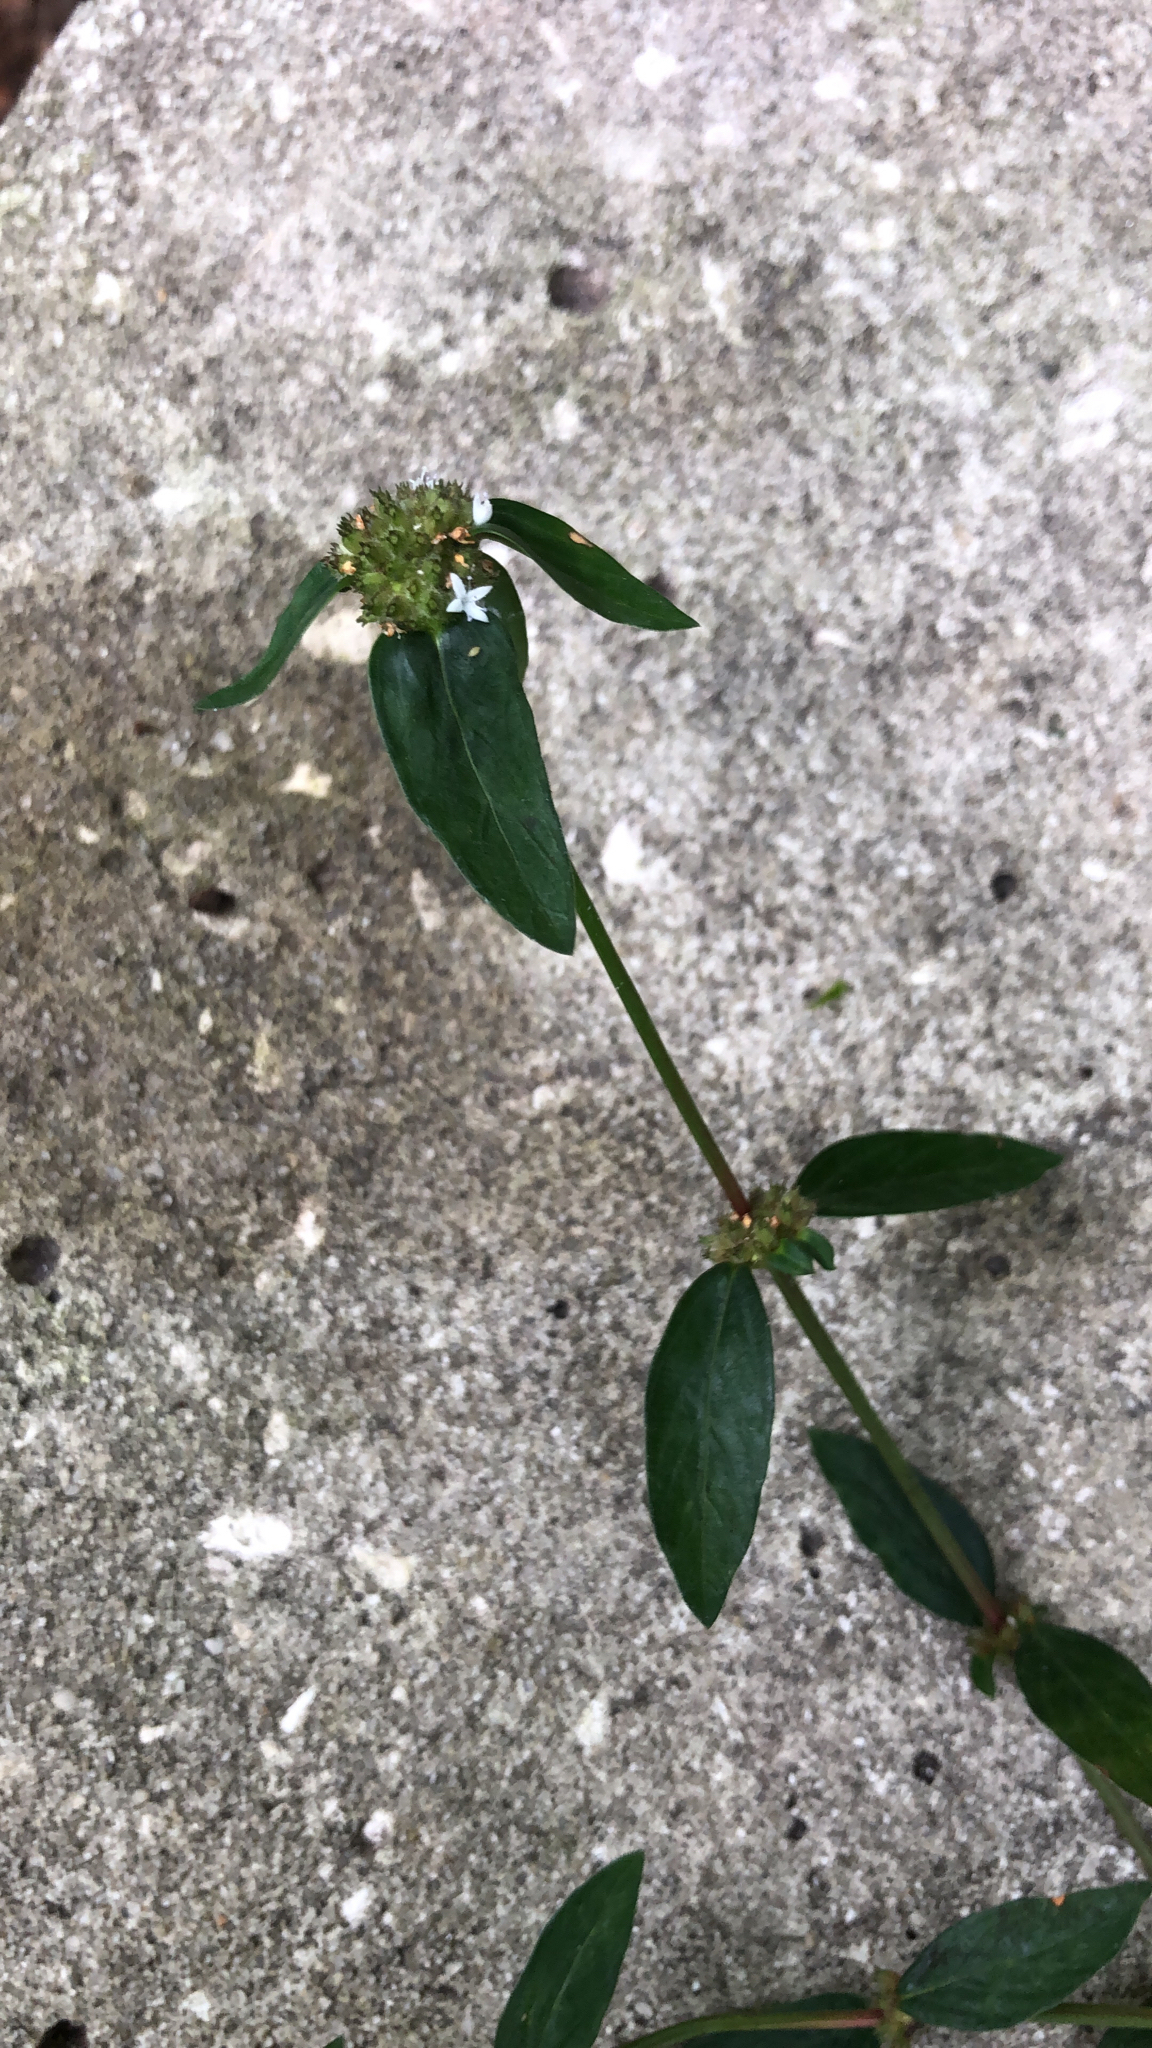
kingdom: Plantae
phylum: Tracheophyta
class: Magnoliopsida
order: Gentianales
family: Rubiaceae
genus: Spermacoce
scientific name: Spermacoce remota
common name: Woodland false buttonweed
